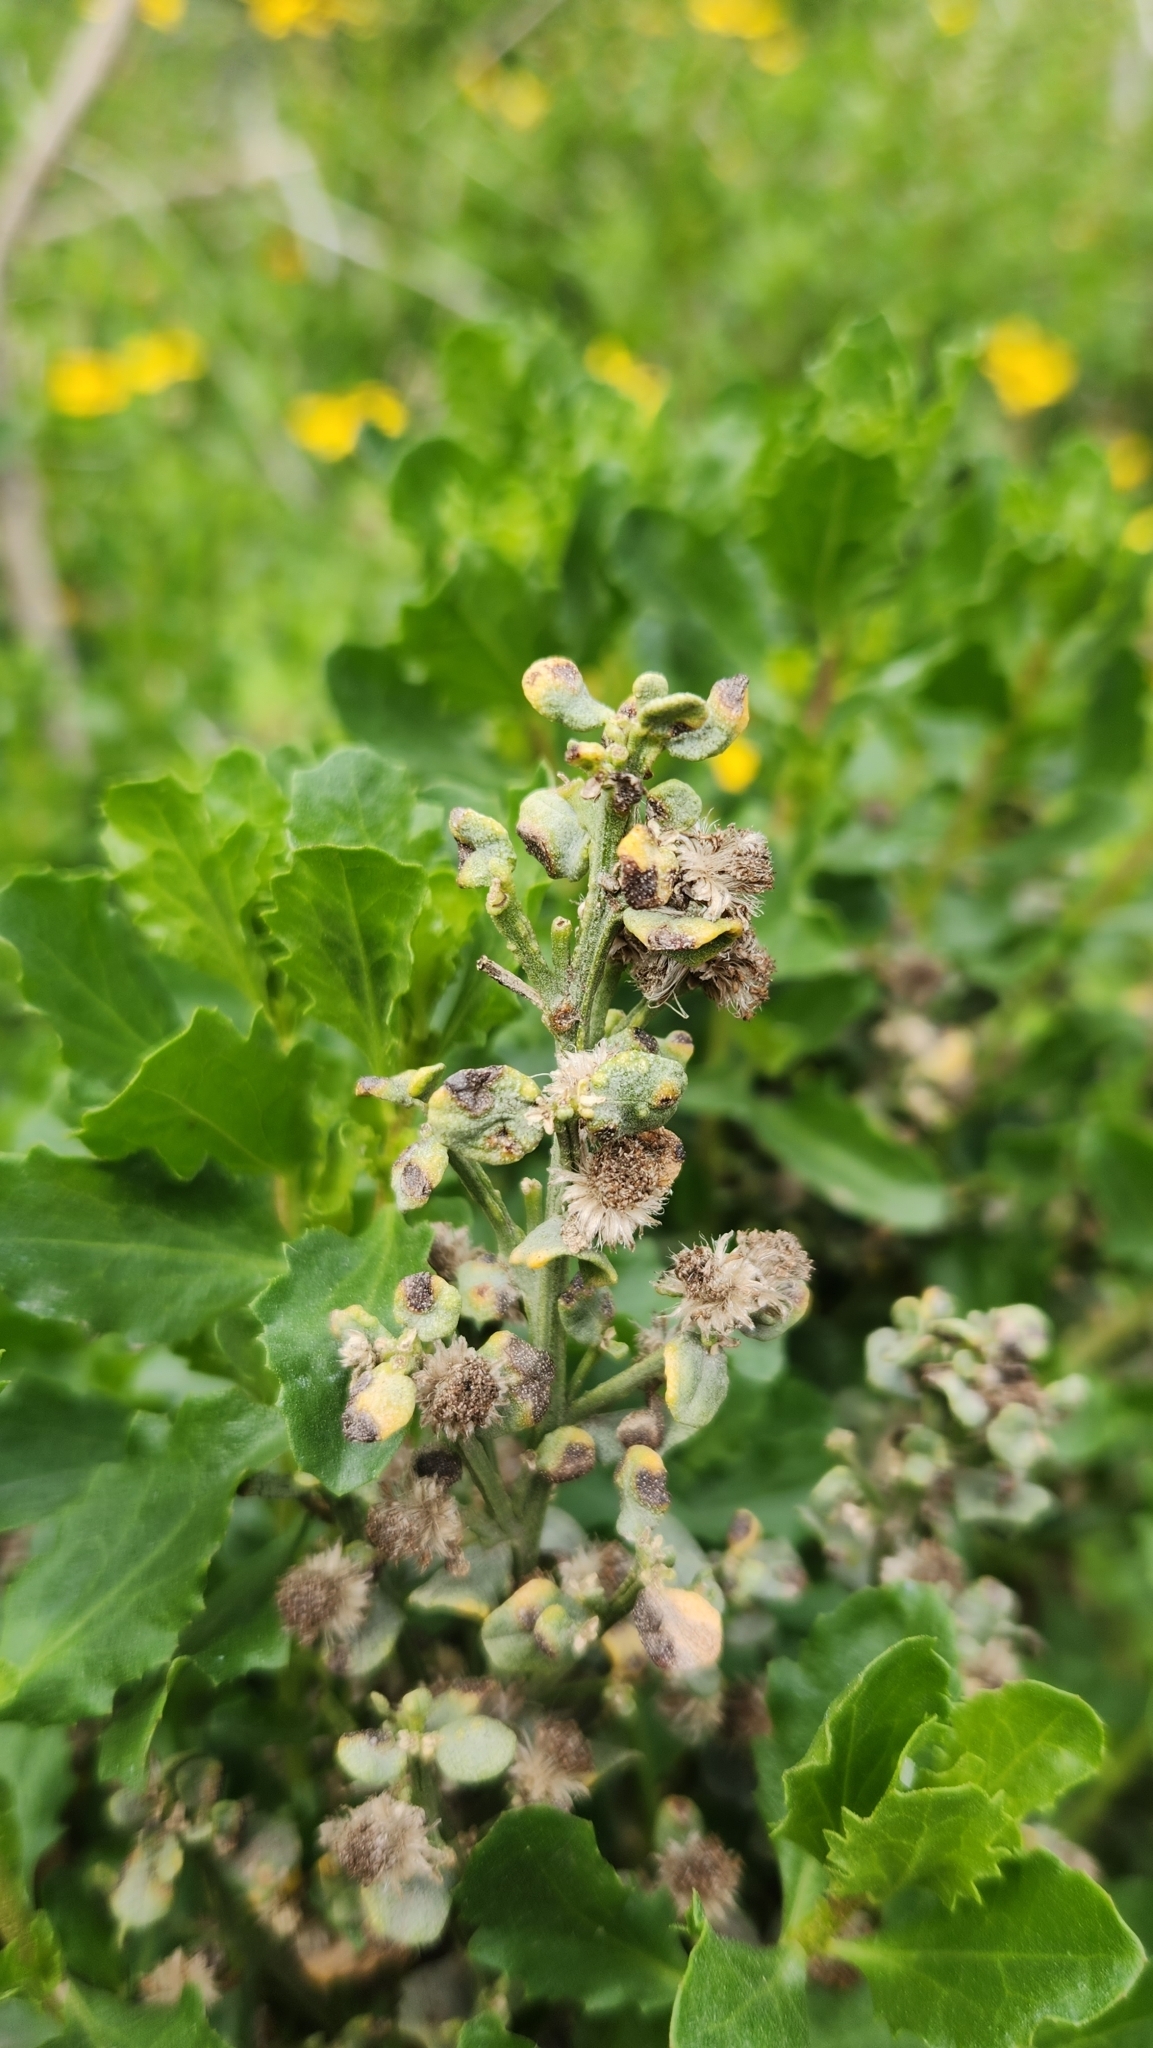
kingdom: Plantae
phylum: Tracheophyta
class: Magnoliopsida
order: Asterales
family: Asteraceae
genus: Baccharis
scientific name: Baccharis pilularis
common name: Coyotebrush
